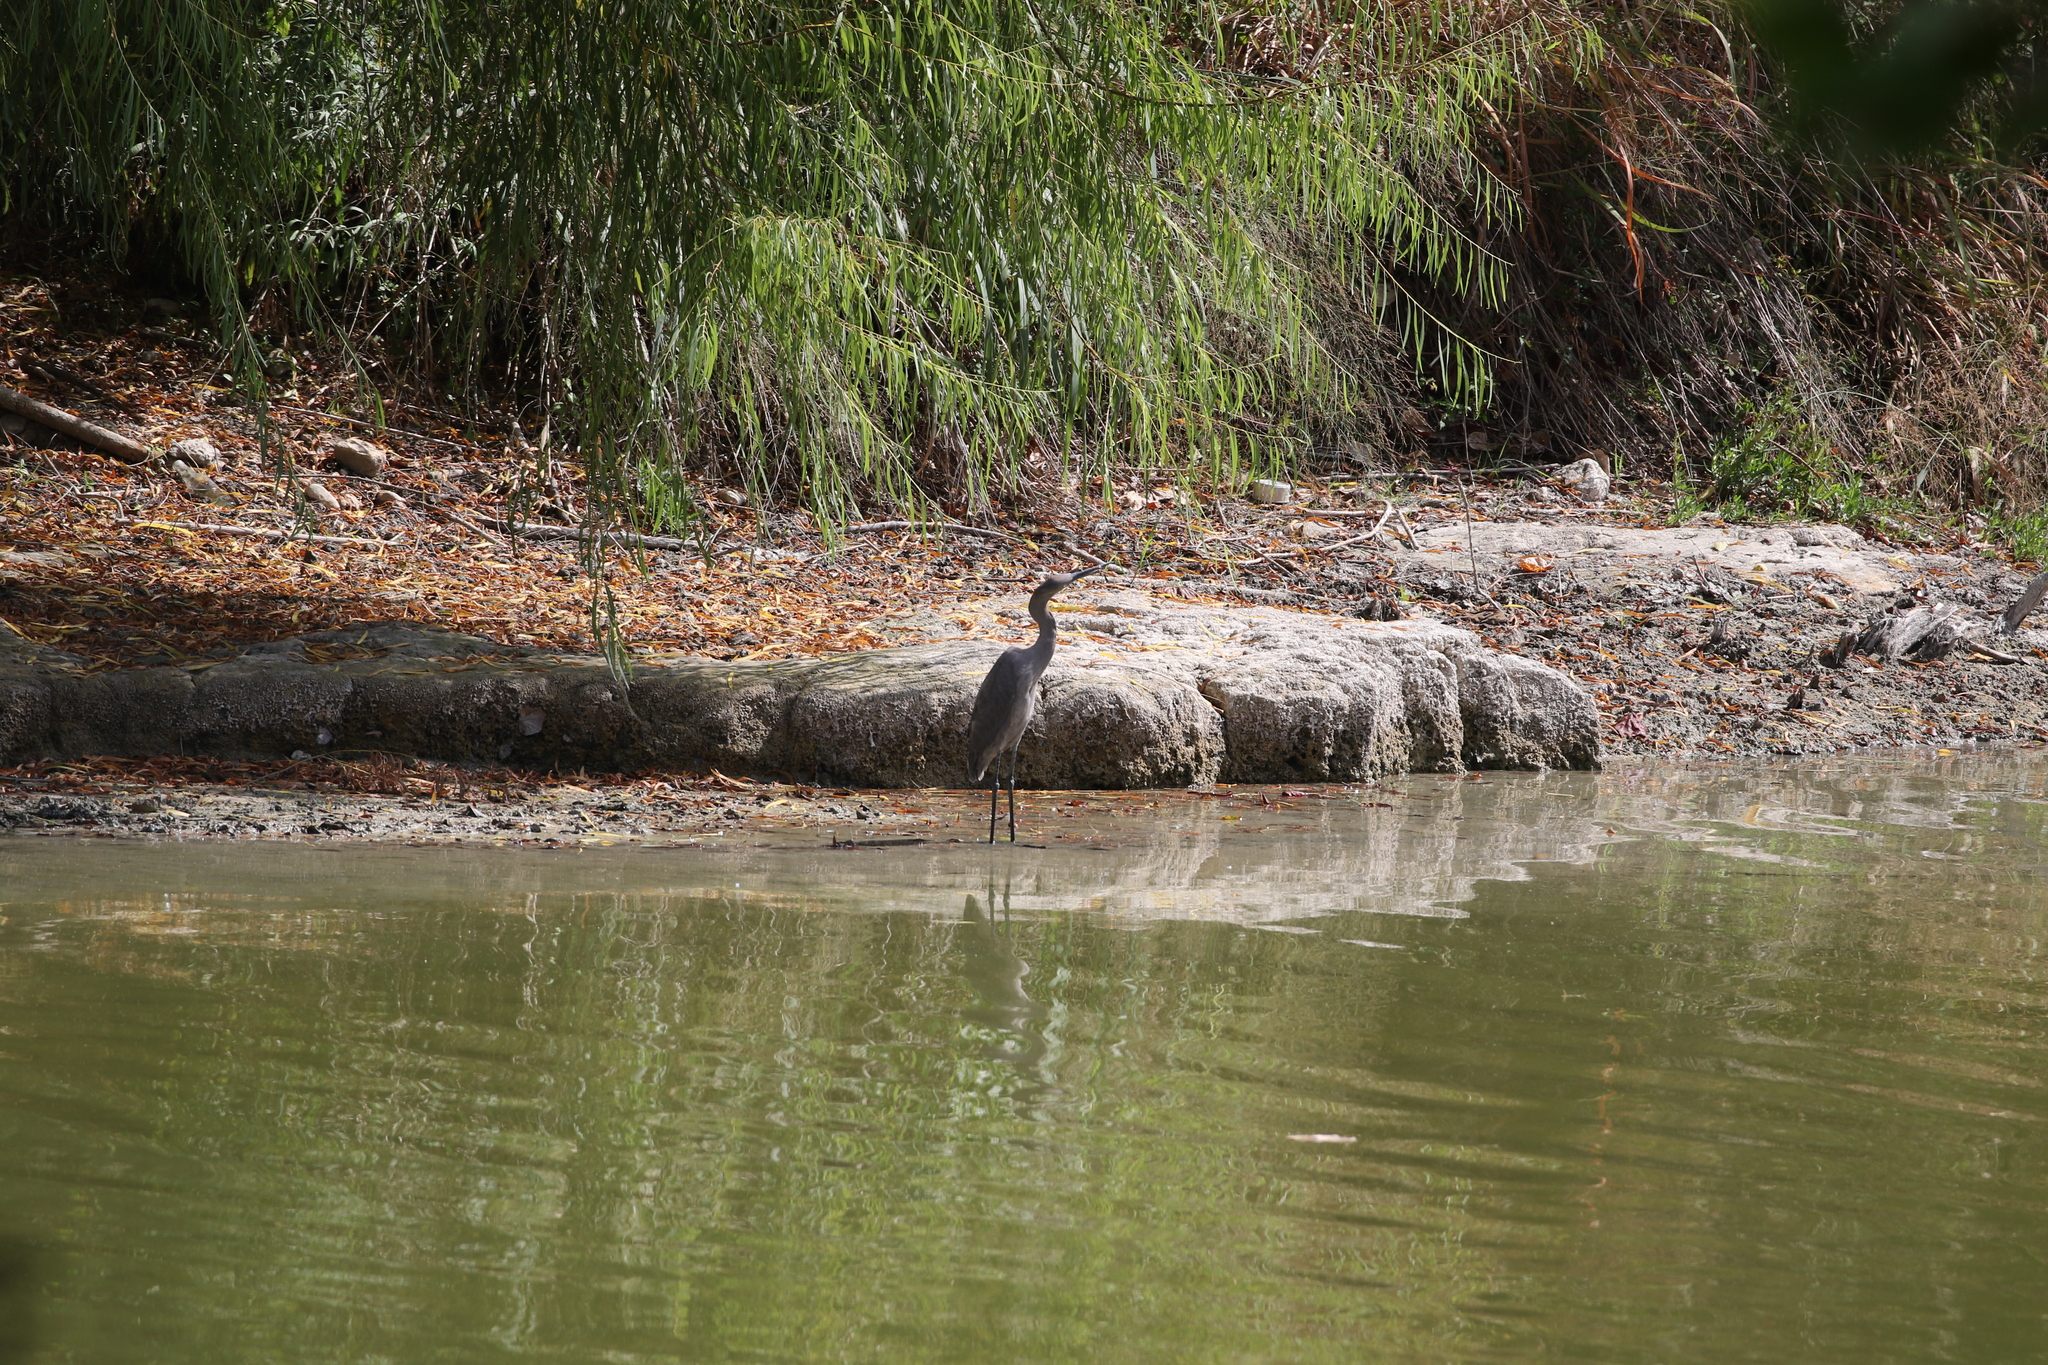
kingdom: Animalia
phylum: Chordata
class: Aves
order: Pelecaniformes
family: Ardeidae
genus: Egretta
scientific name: Egretta rufescens
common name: Reddish egret
